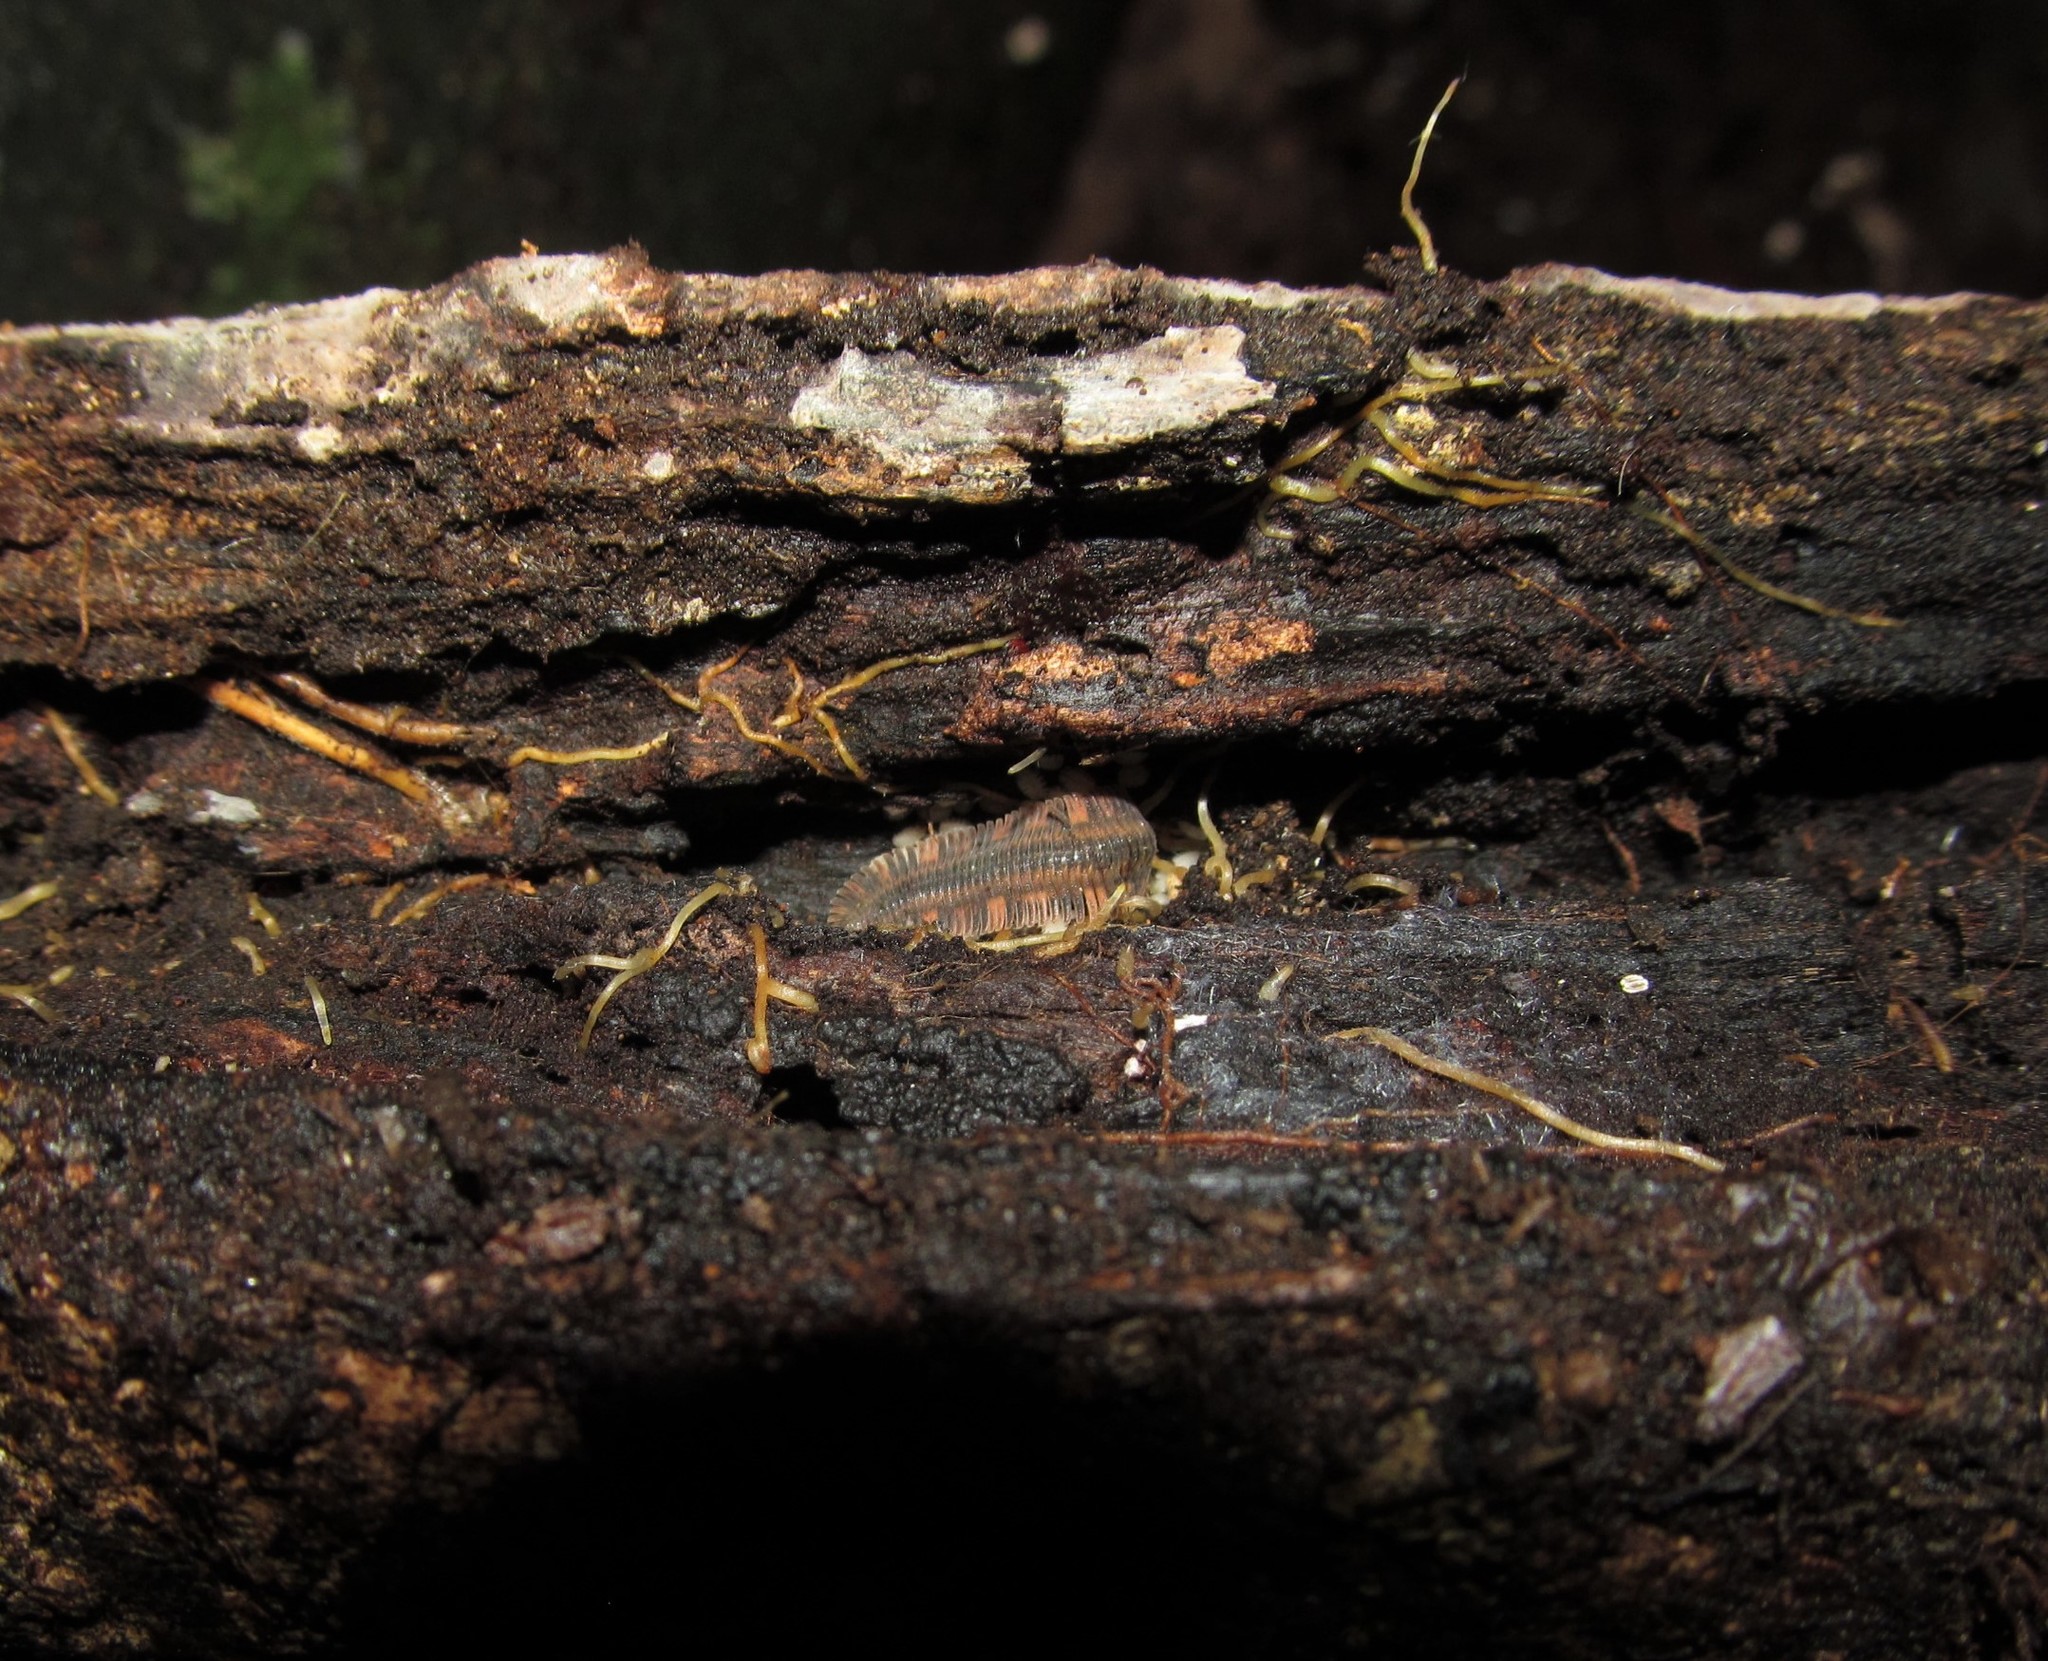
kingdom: Animalia
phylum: Arthropoda
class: Diplopoda
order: Platydesmida
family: Platydesmidae
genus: Platydesmus
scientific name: Platydesmus mexicanus
